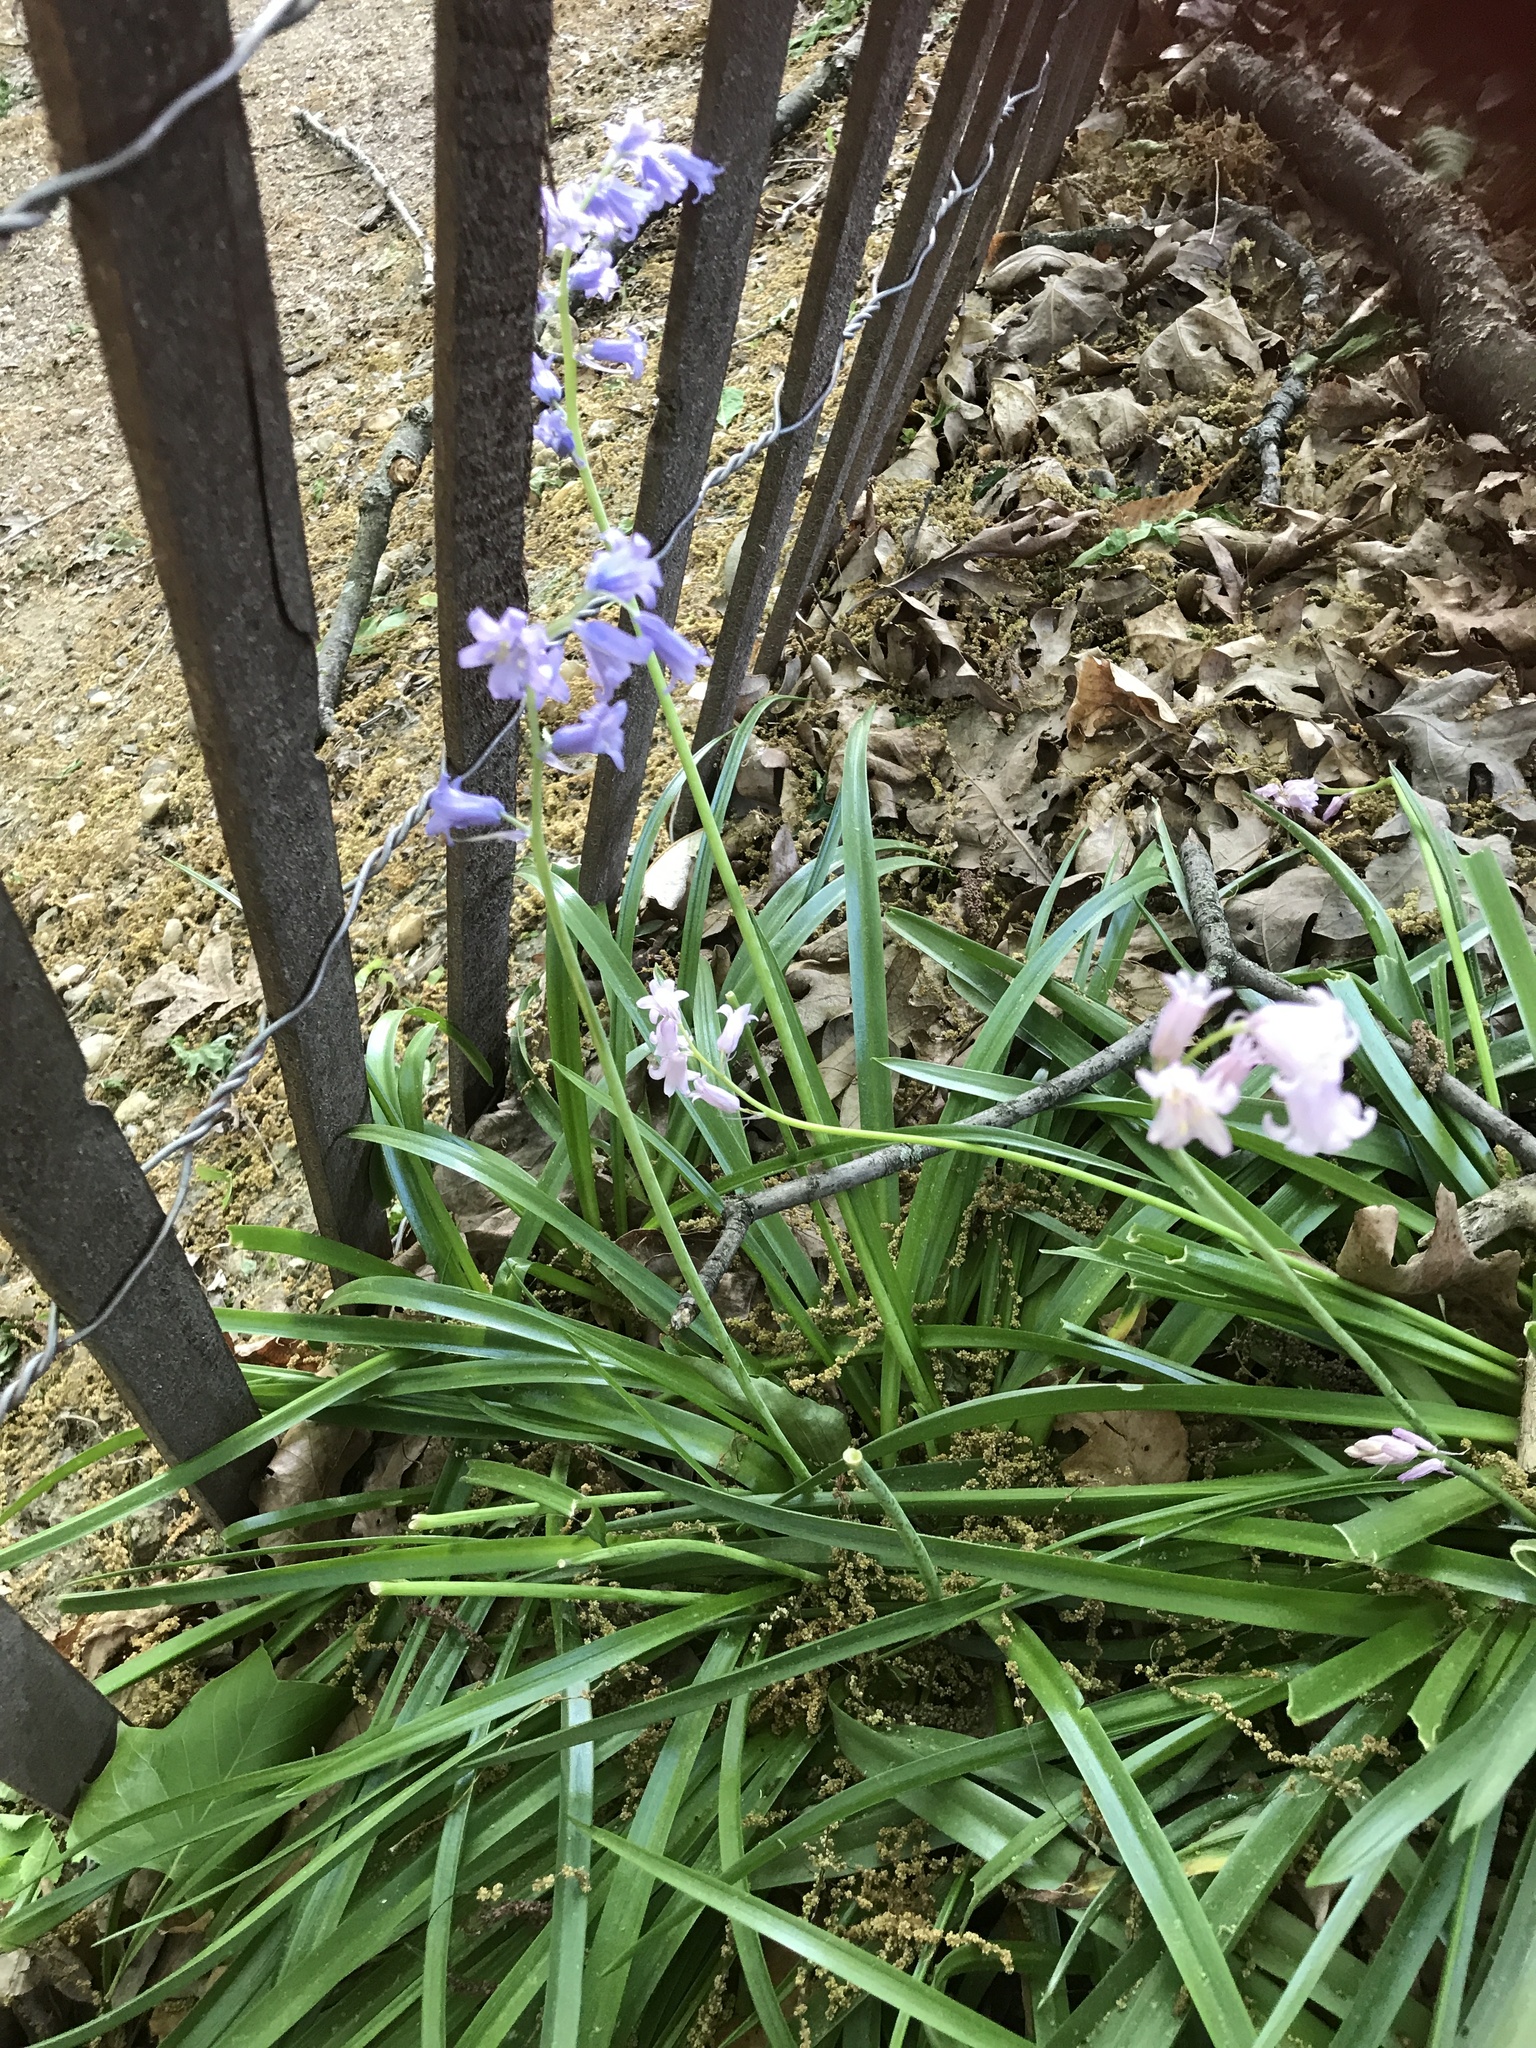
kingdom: Plantae
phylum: Tracheophyta
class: Liliopsida
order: Asparagales
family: Asparagaceae
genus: Hyacinthoides
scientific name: Hyacinthoides hispanica
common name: Spanish bluebell
